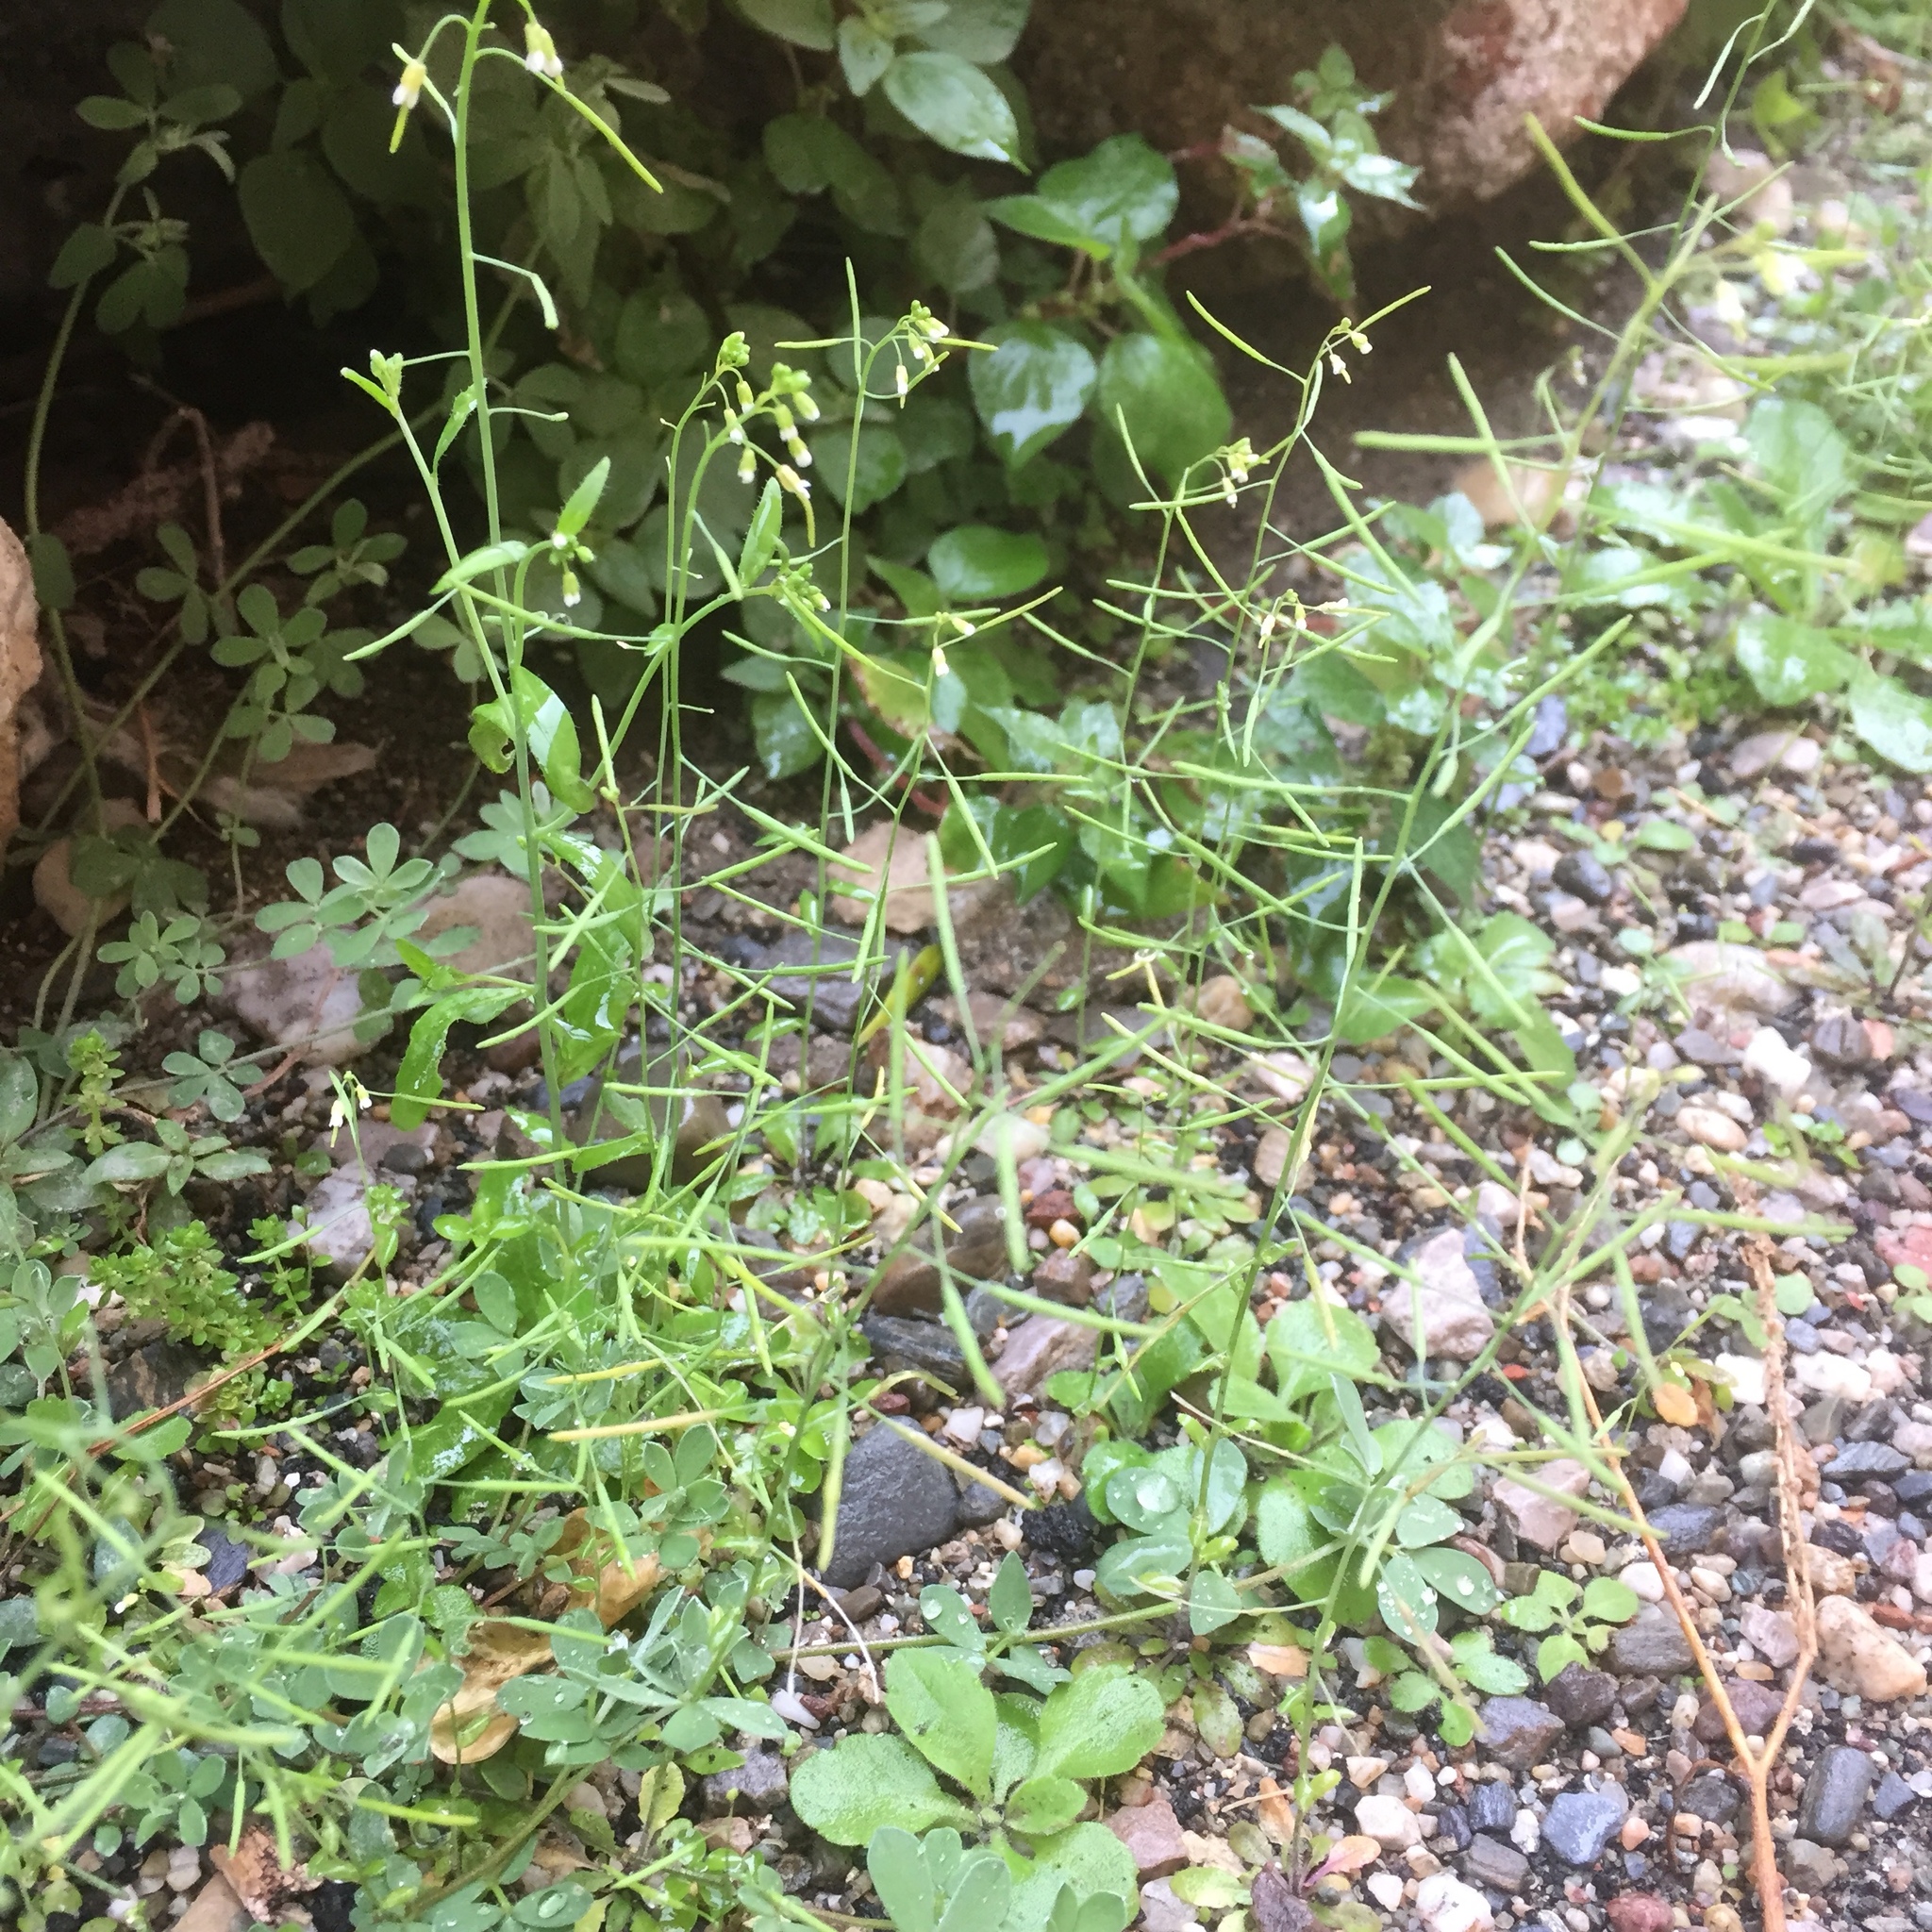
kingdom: Plantae
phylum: Tracheophyta
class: Magnoliopsida
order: Brassicales
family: Brassicaceae
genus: Arabidopsis
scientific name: Arabidopsis thaliana
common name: Thale cress
